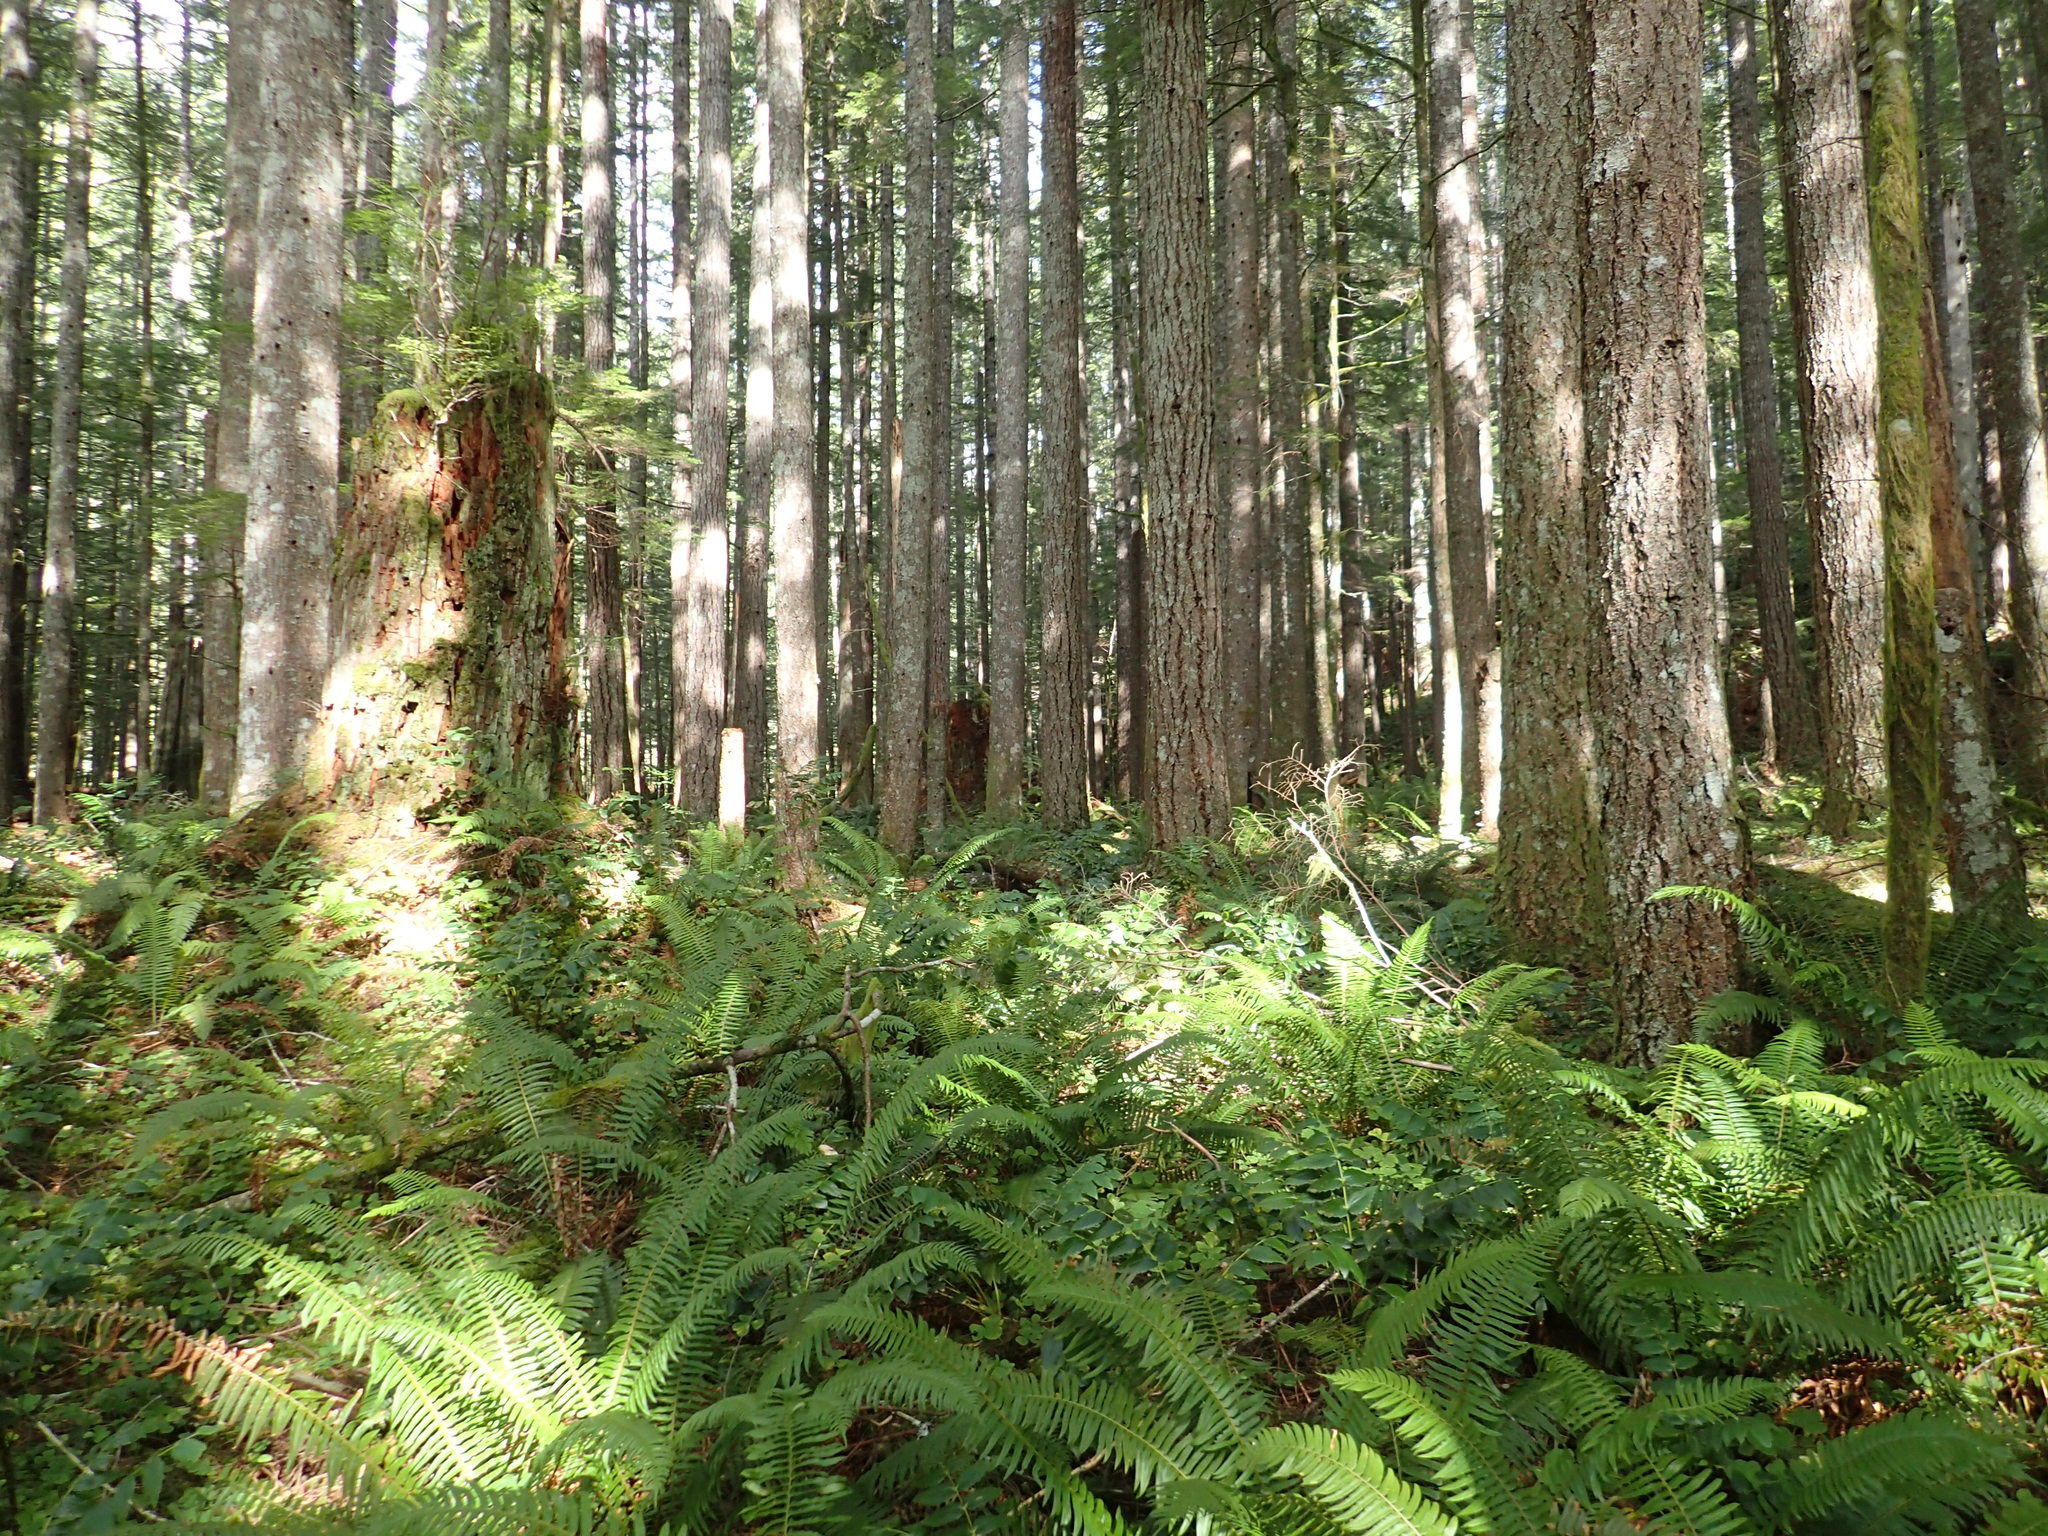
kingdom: Plantae
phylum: Tracheophyta
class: Pinopsida
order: Pinales
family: Pinaceae
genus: Pseudotsuga
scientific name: Pseudotsuga menziesii
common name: Douglas fir
